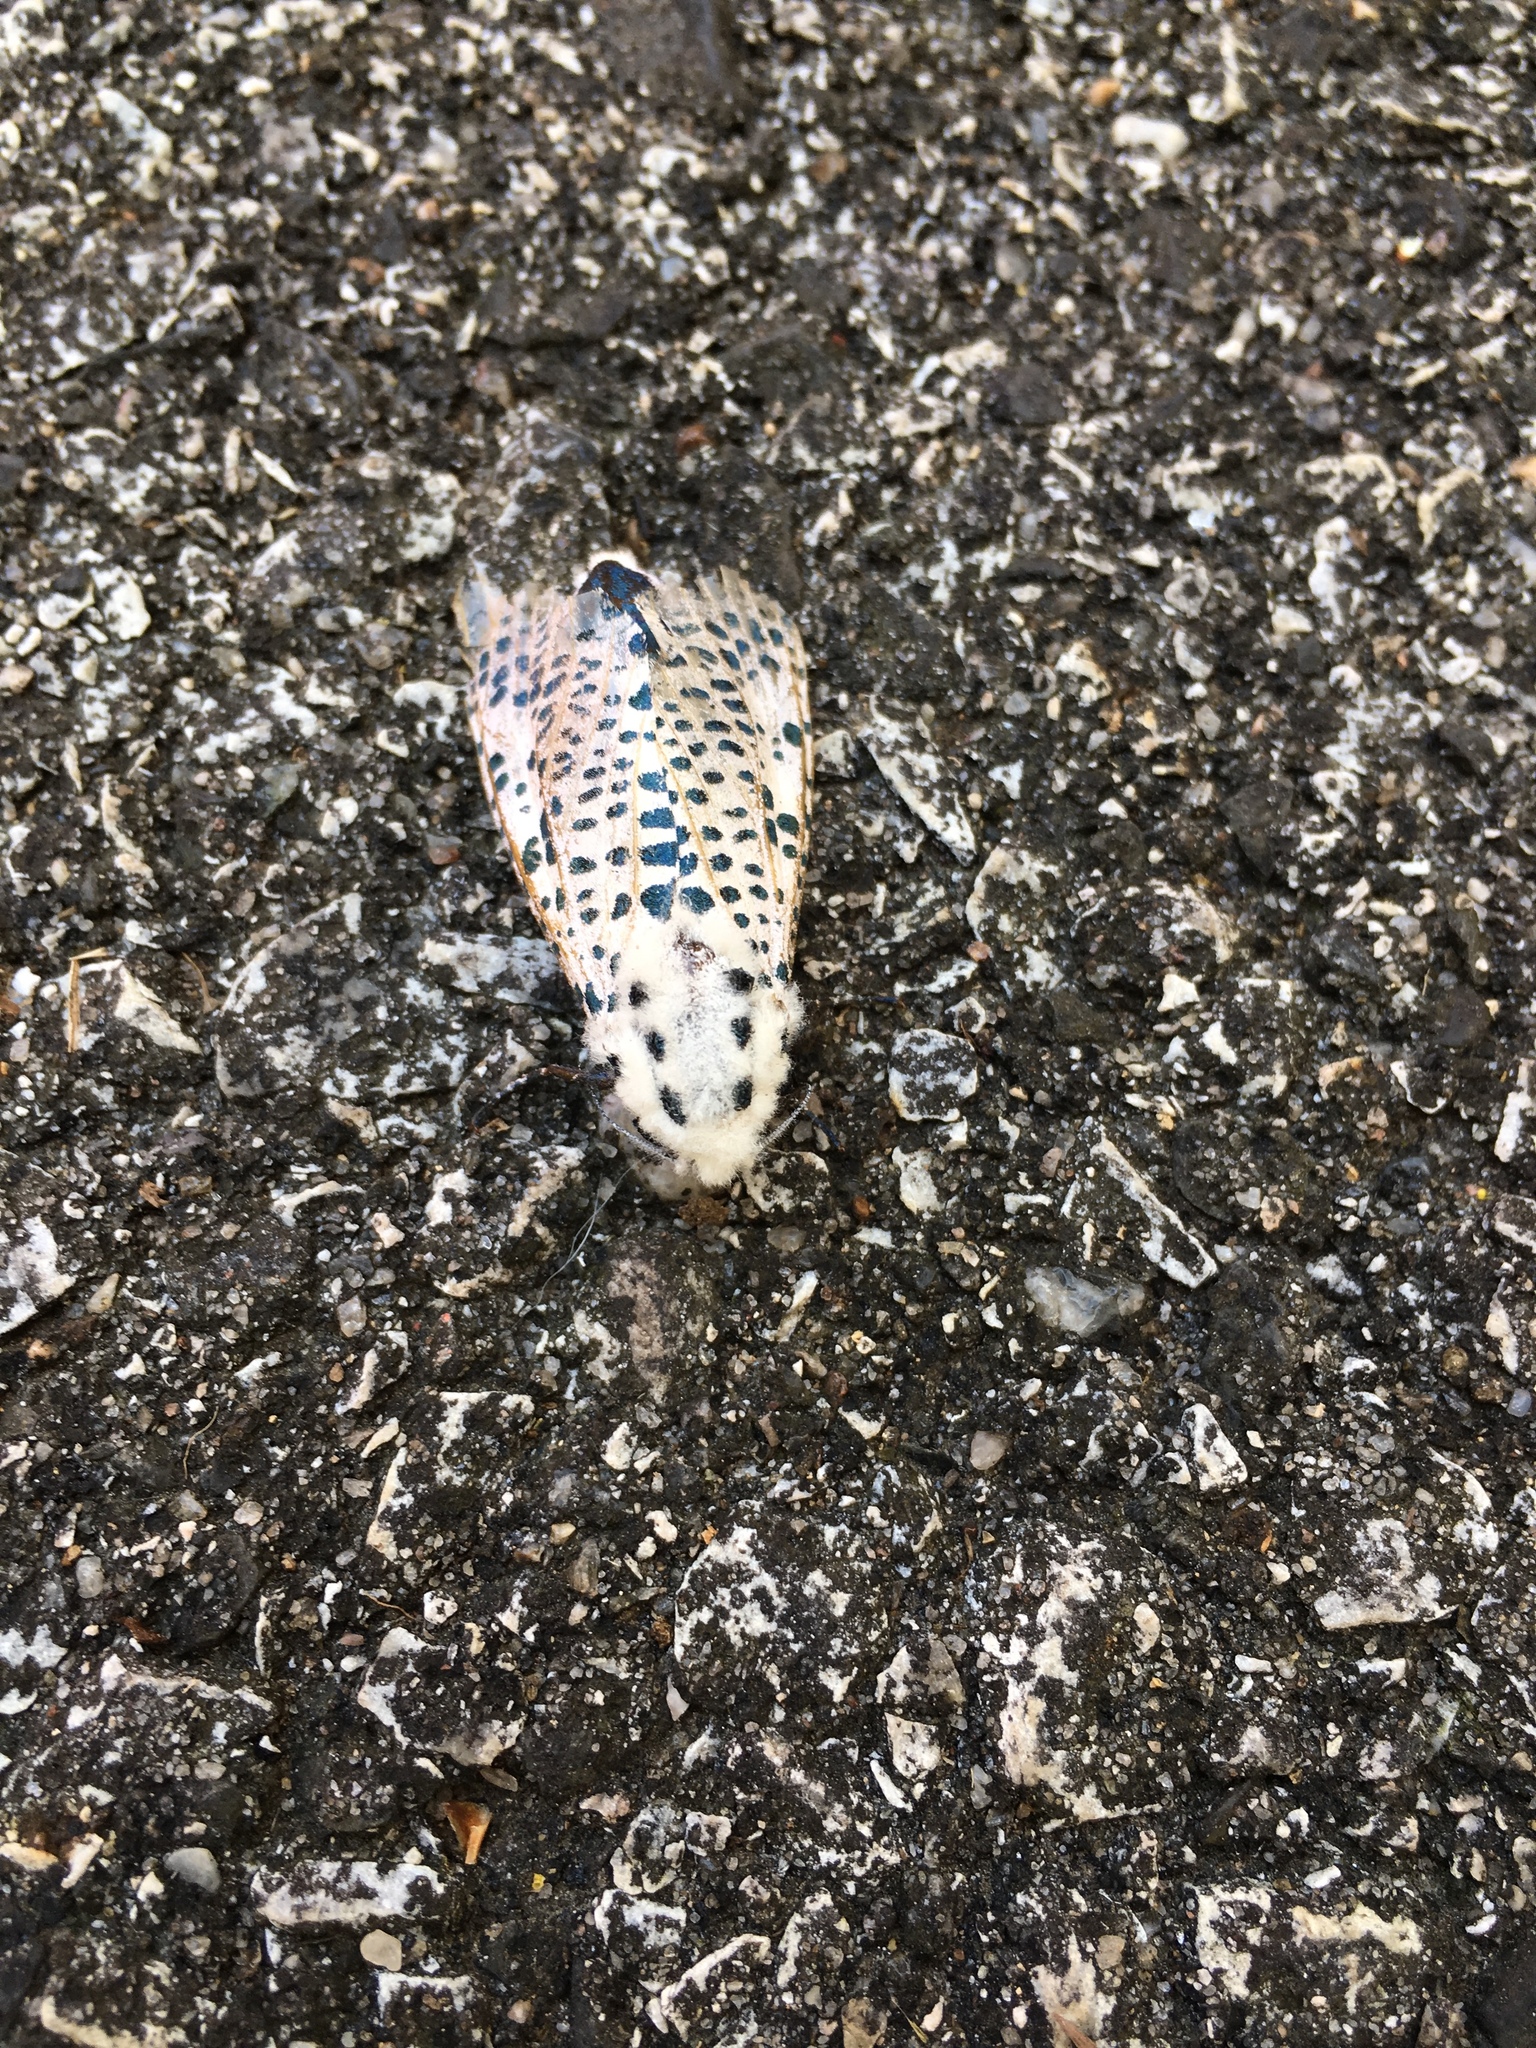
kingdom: Animalia
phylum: Arthropoda
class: Insecta
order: Lepidoptera
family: Cossidae
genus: Zeuzera
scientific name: Zeuzera pyrina
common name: Leopard moth
